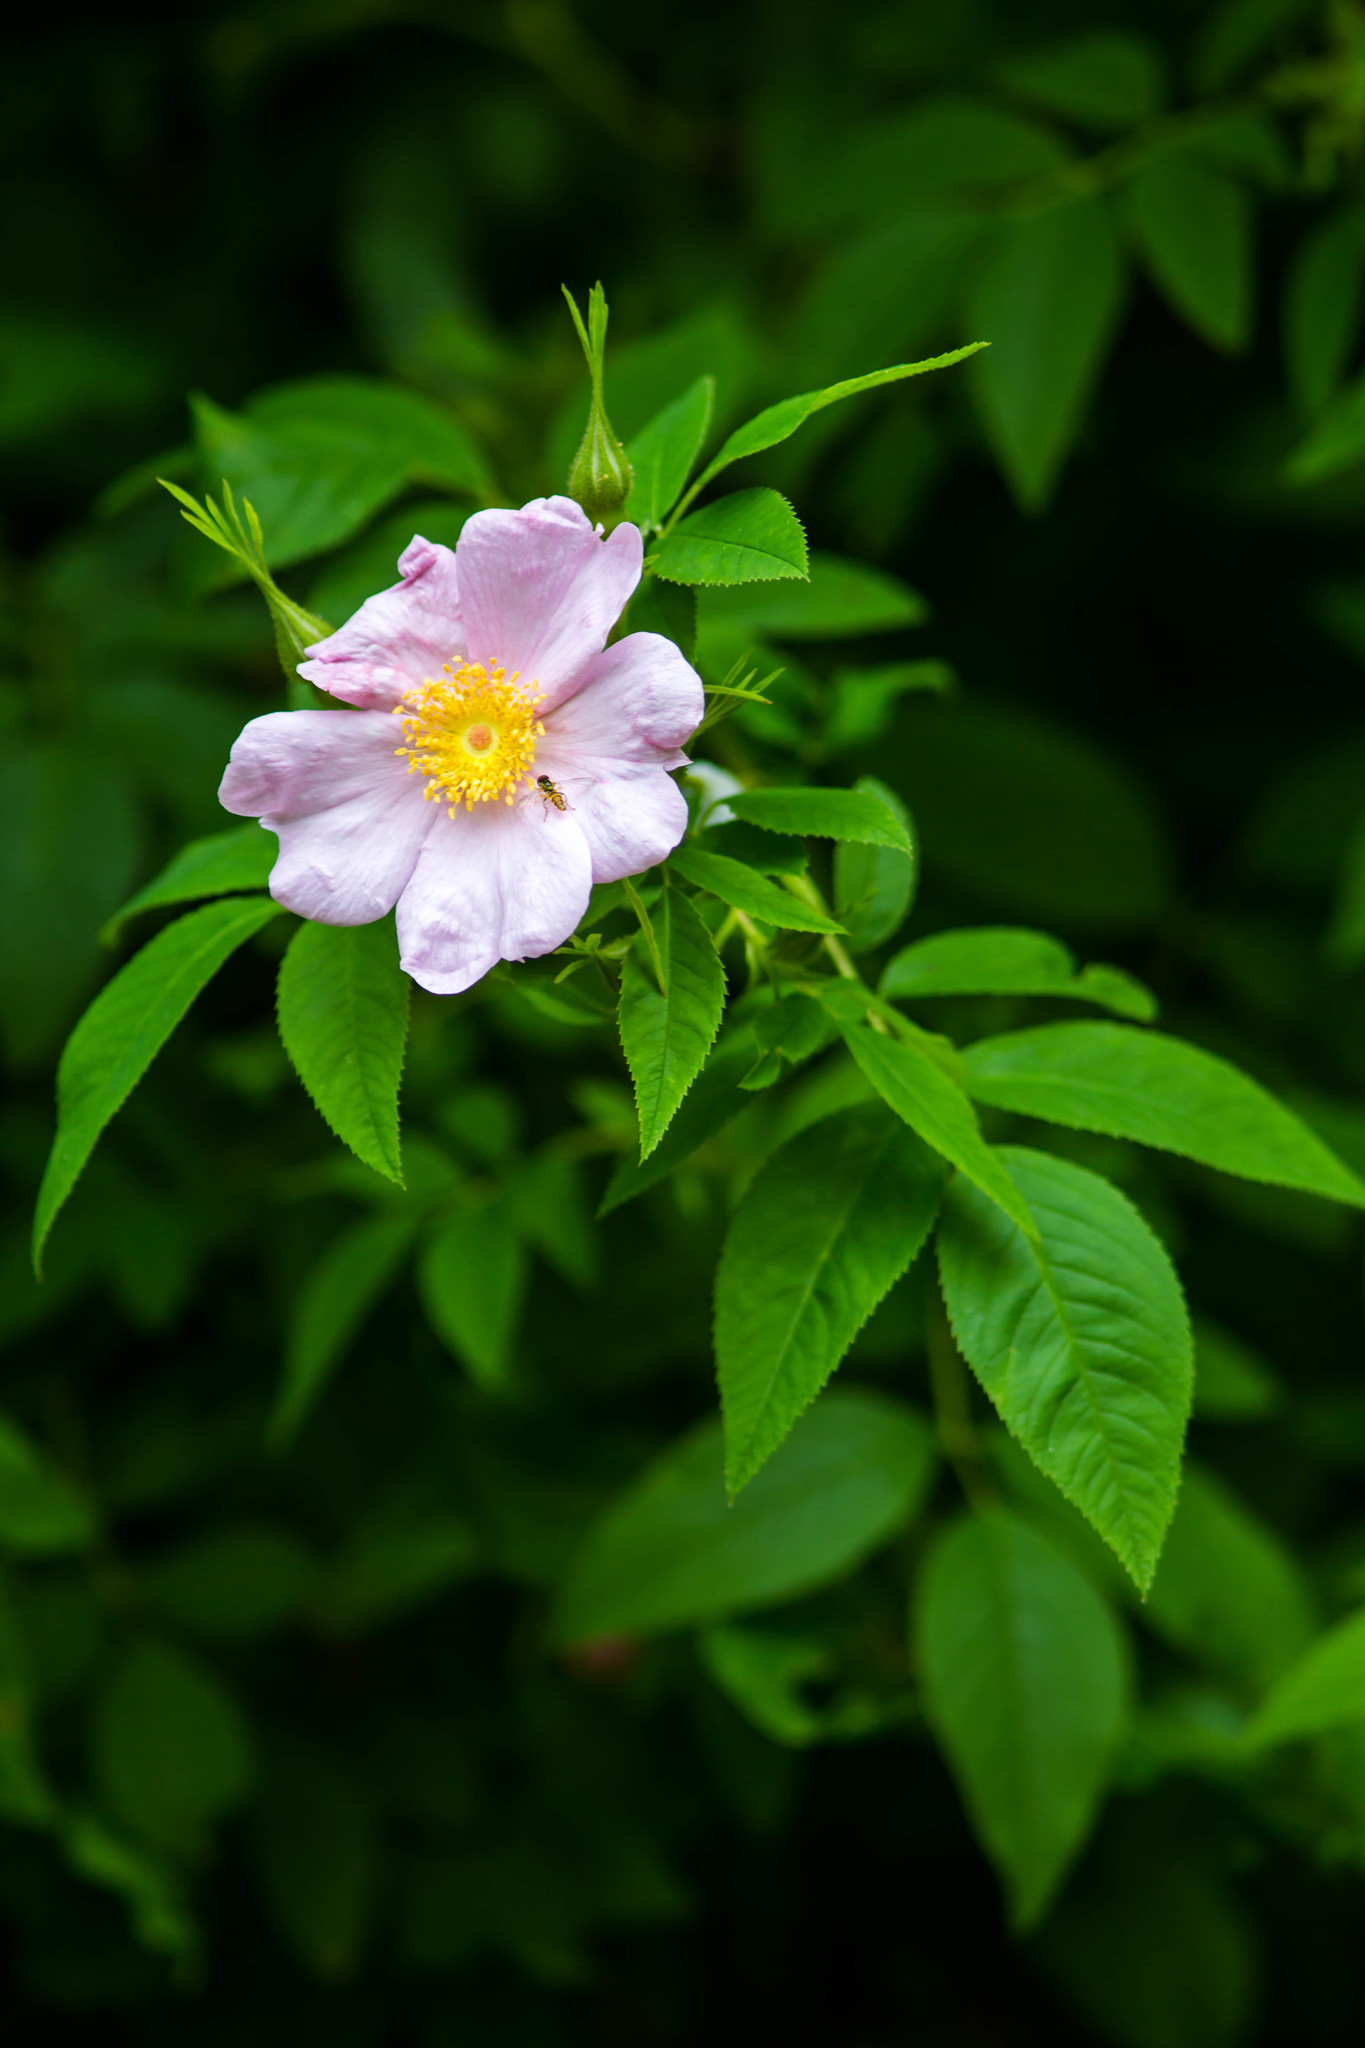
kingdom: Plantae
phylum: Tracheophyta
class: Magnoliopsida
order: Rosales
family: Rosaceae
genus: Rosa
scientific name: Rosa carolina
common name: Pasture rose
